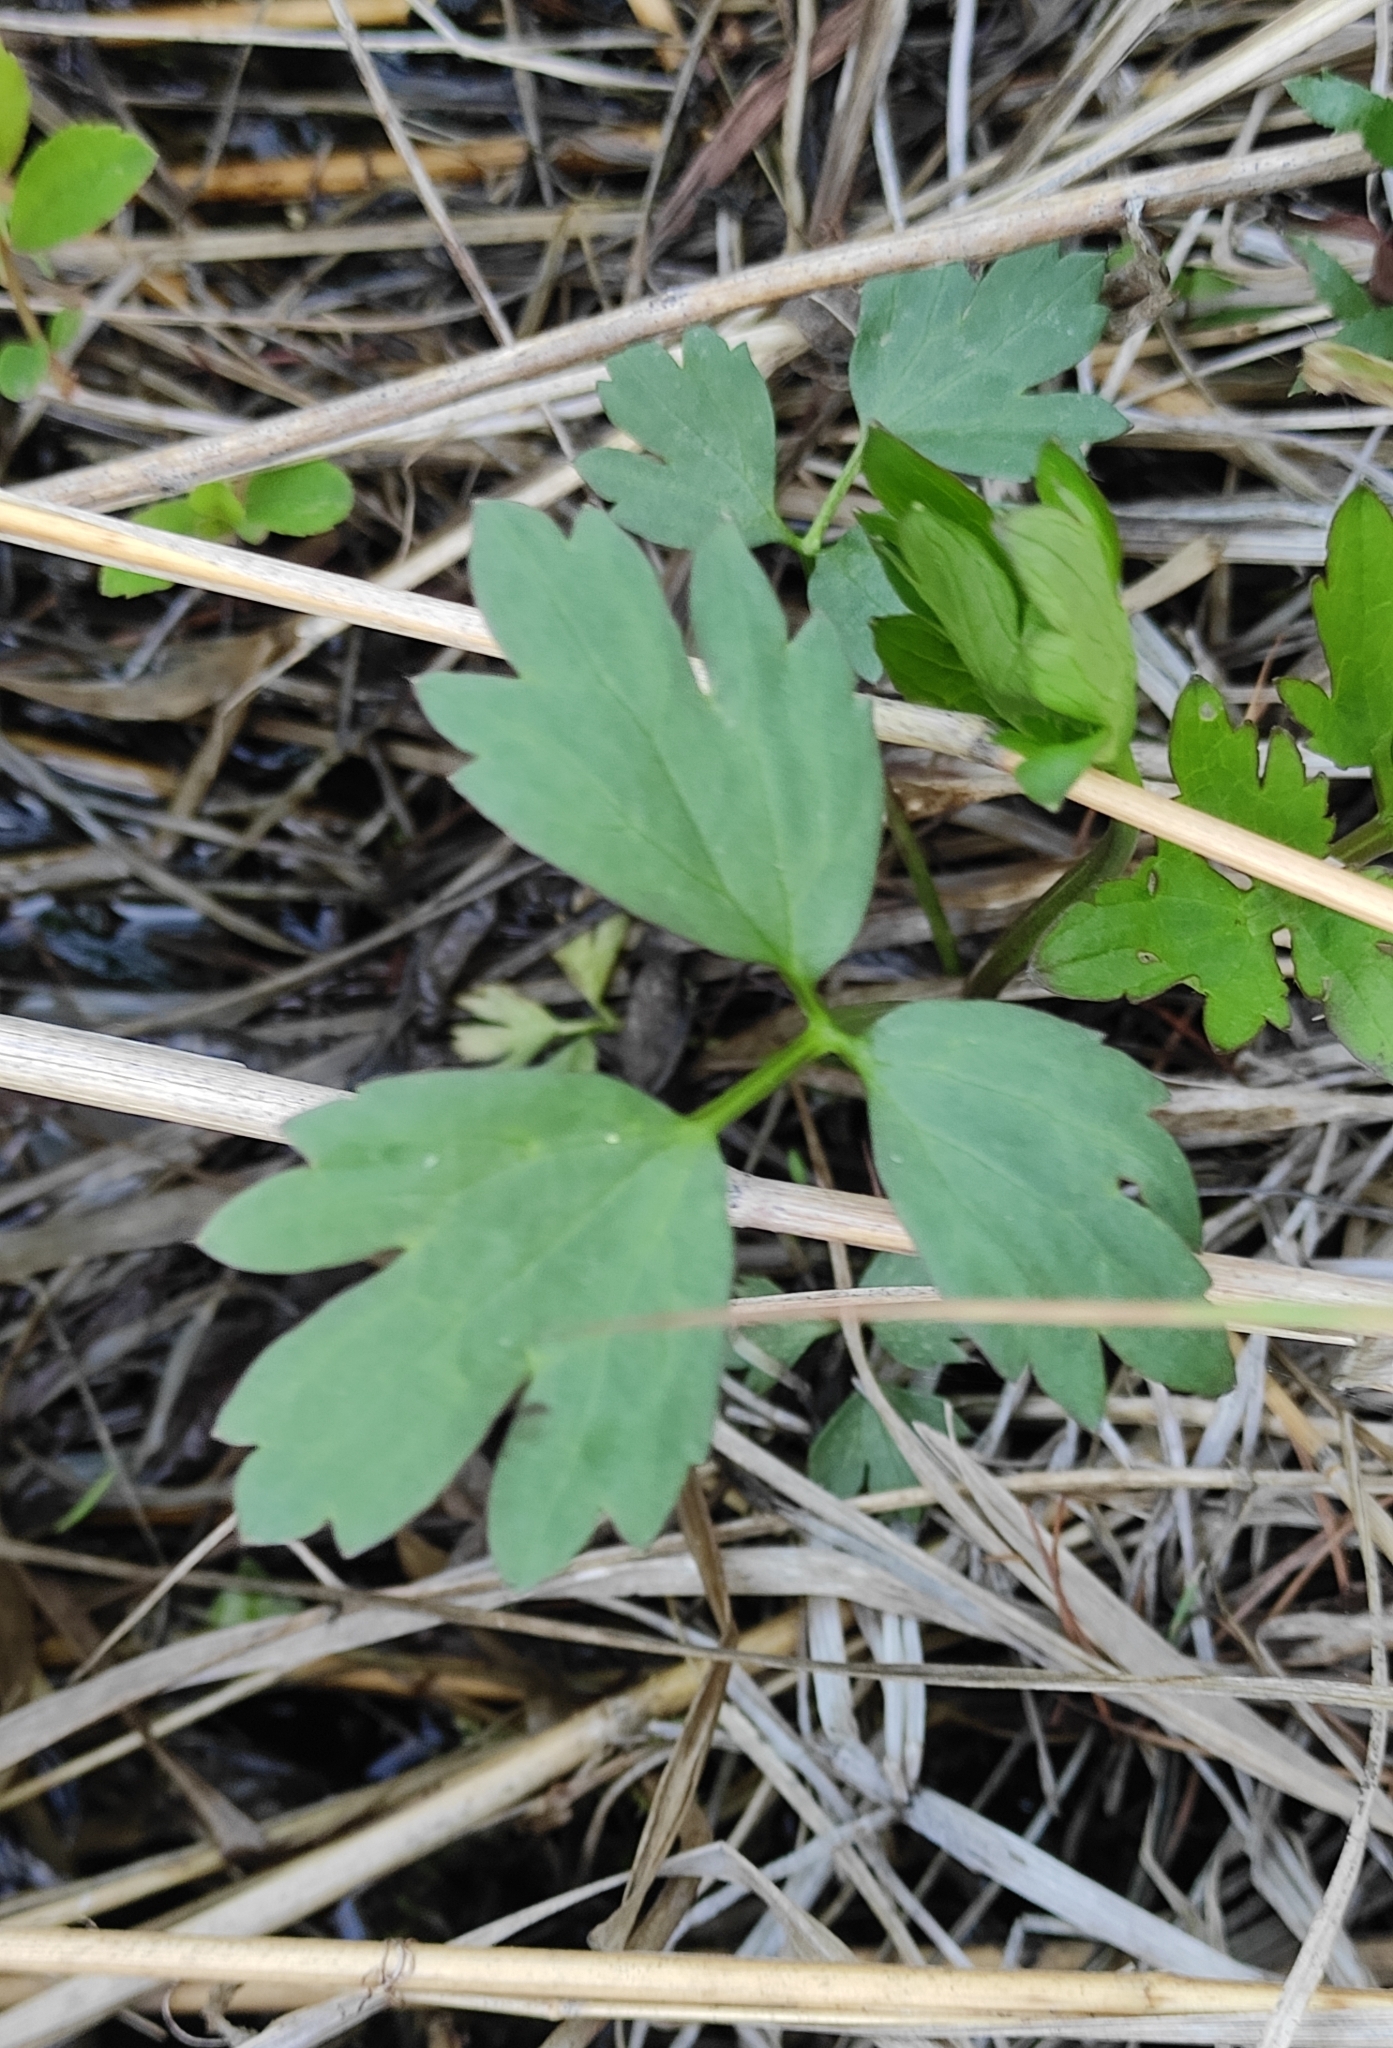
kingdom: Plantae
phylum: Tracheophyta
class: Magnoliopsida
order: Ranunculales
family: Ranunculaceae
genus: Ranunculus
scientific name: Ranunculus repens
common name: Creeping buttercup
